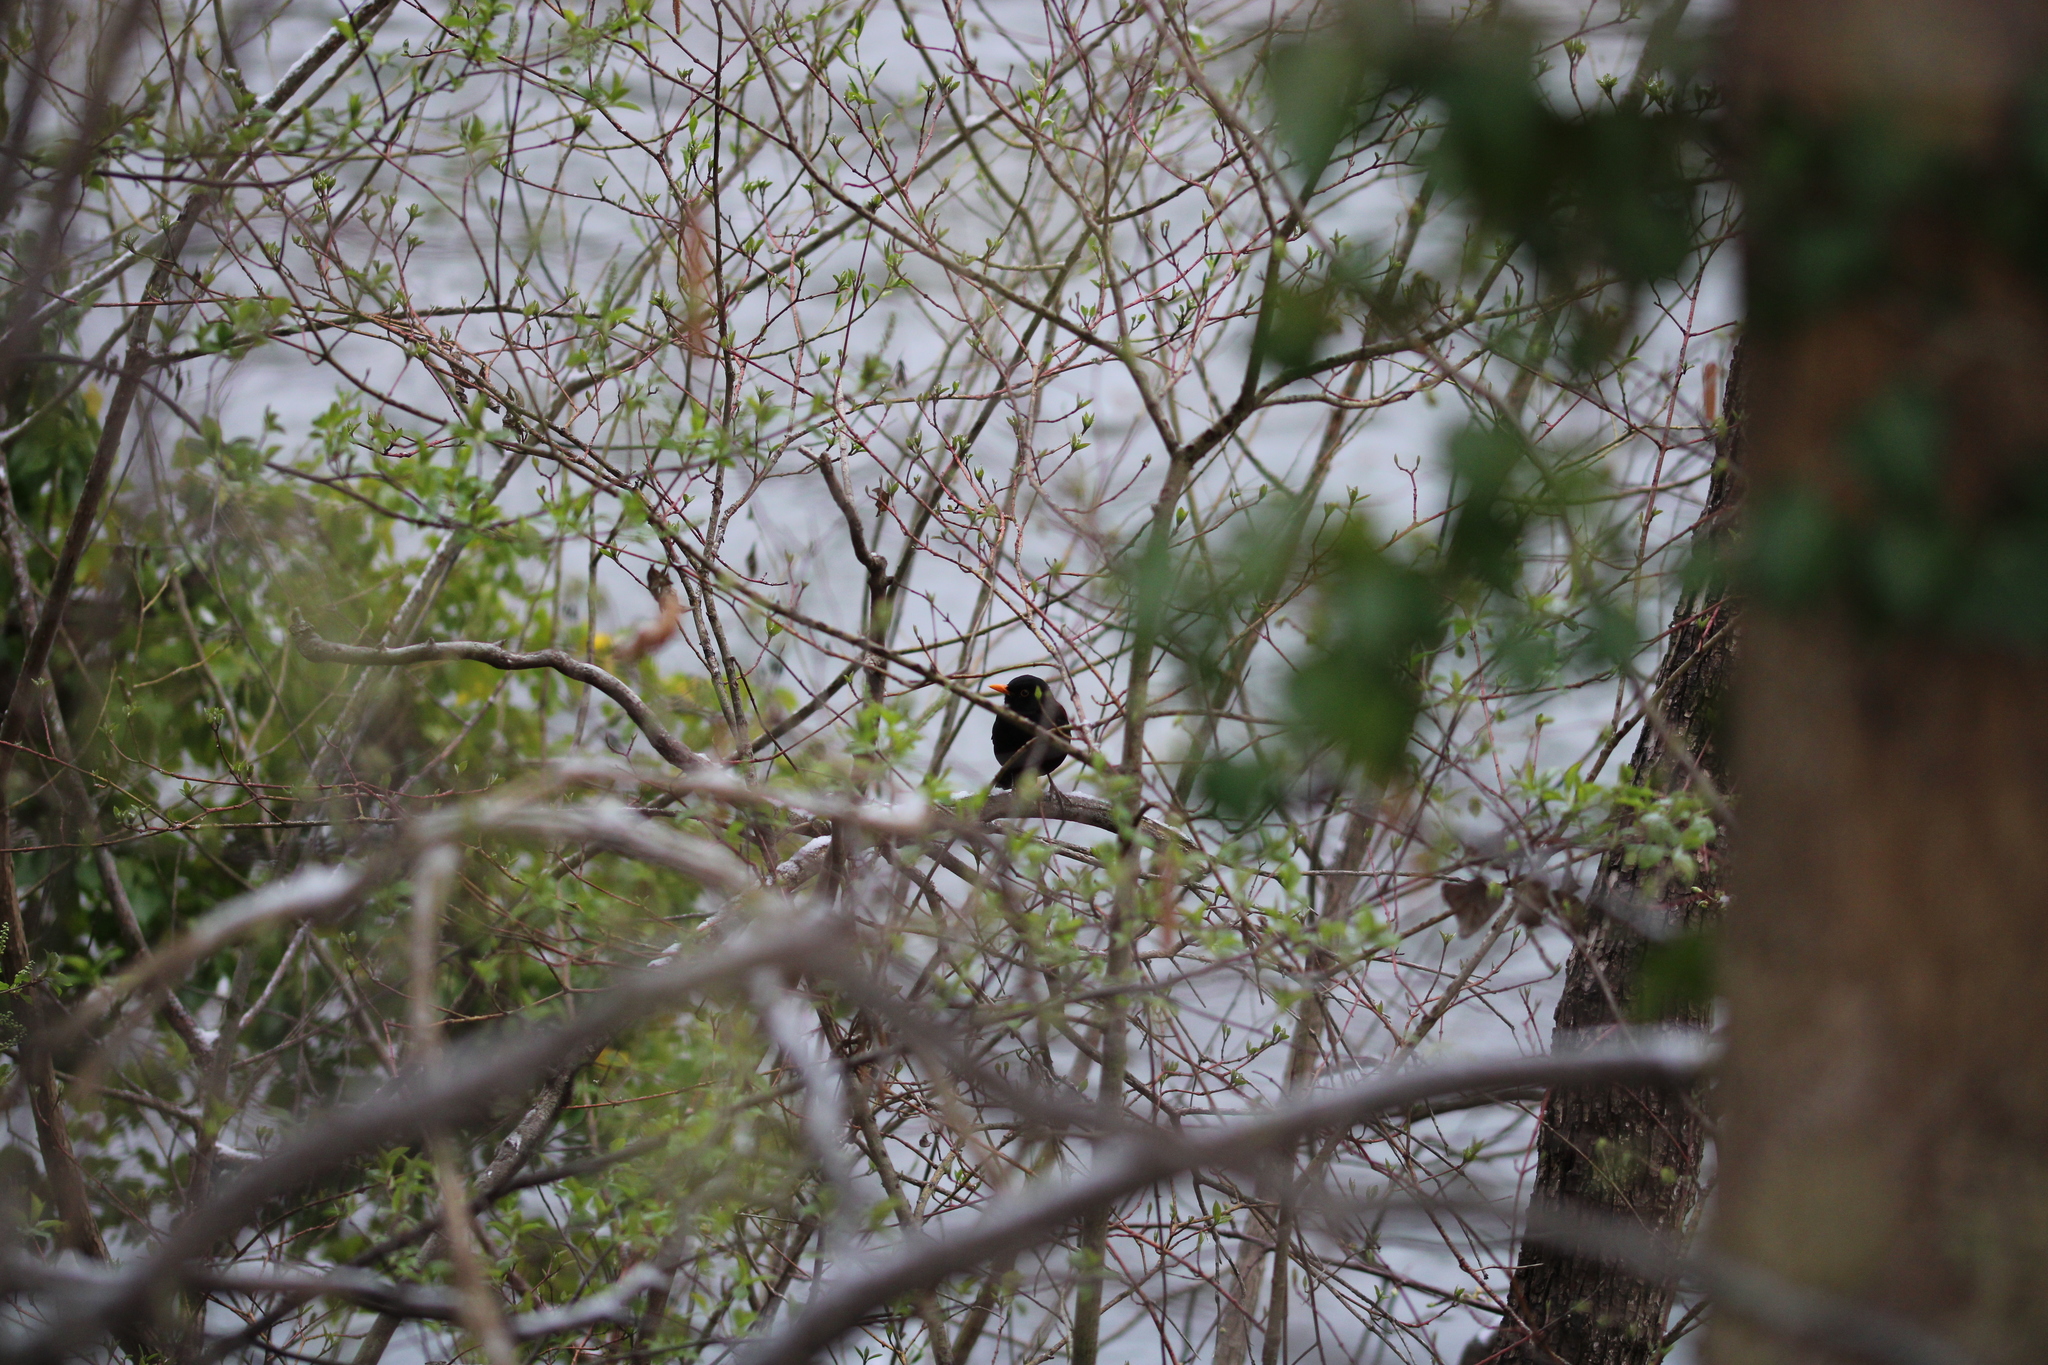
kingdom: Animalia
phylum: Chordata
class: Aves
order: Passeriformes
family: Turdidae
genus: Turdus
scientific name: Turdus merula
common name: Common blackbird
